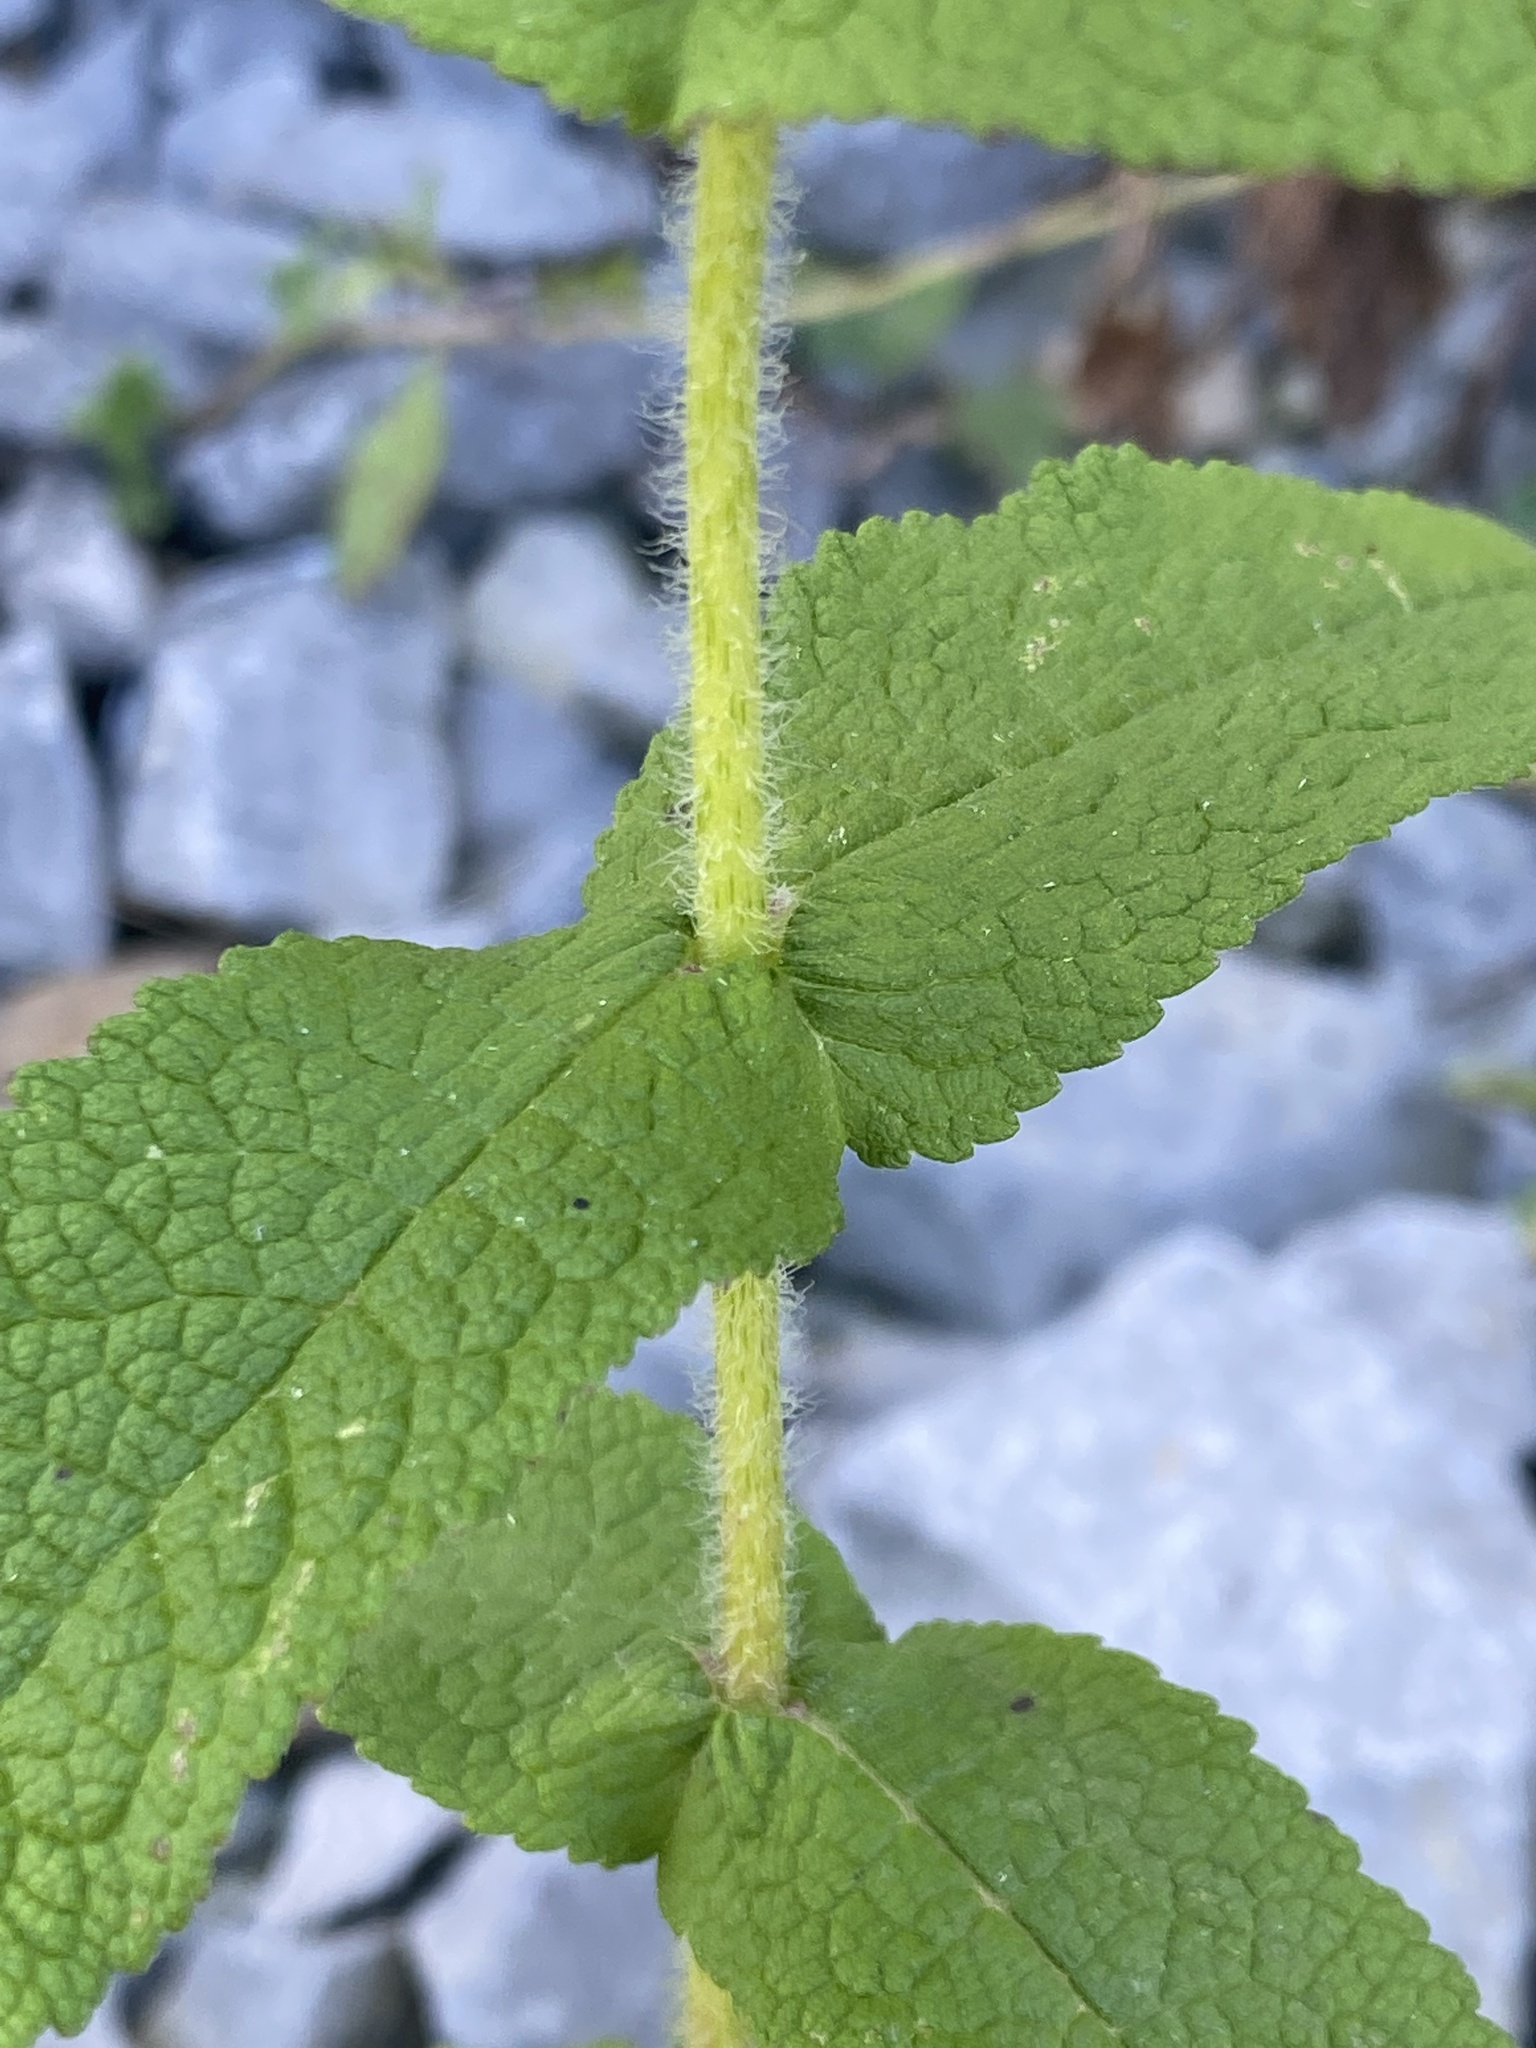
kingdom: Plantae
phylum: Tracheophyta
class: Magnoliopsida
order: Asterales
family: Asteraceae
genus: Eupatorium
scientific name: Eupatorium perfoliatum
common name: Boneset
